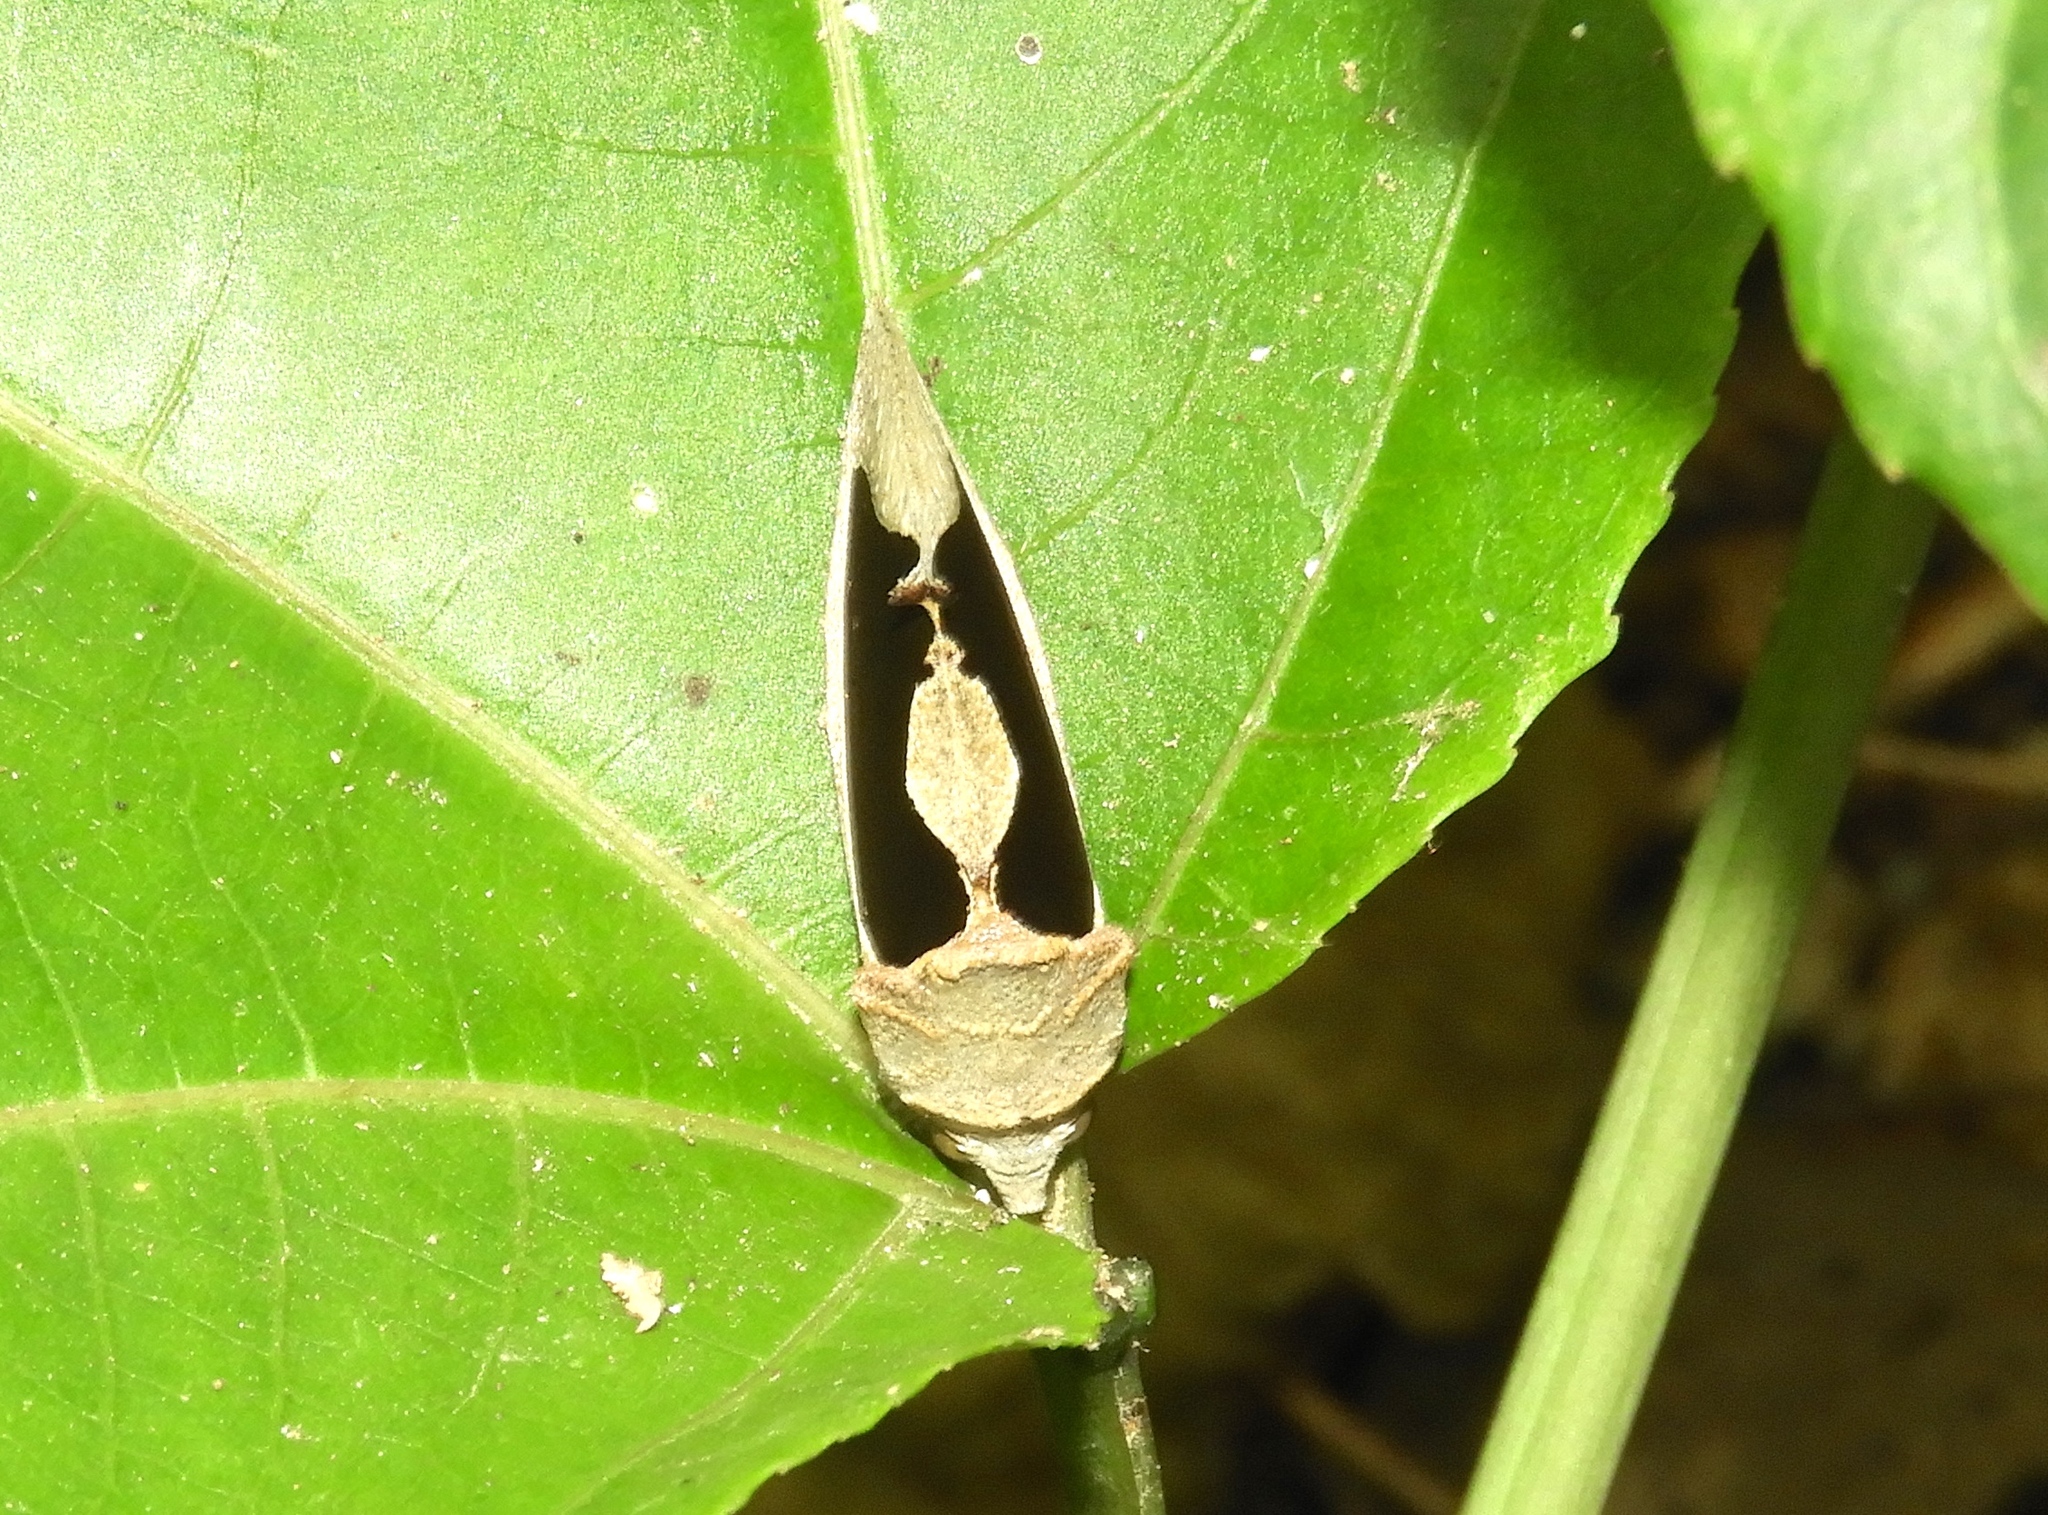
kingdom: Animalia
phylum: Arthropoda
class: Insecta
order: Lepidoptera
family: Erebidae
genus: Gonodonta
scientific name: Gonodonta sinaldus
